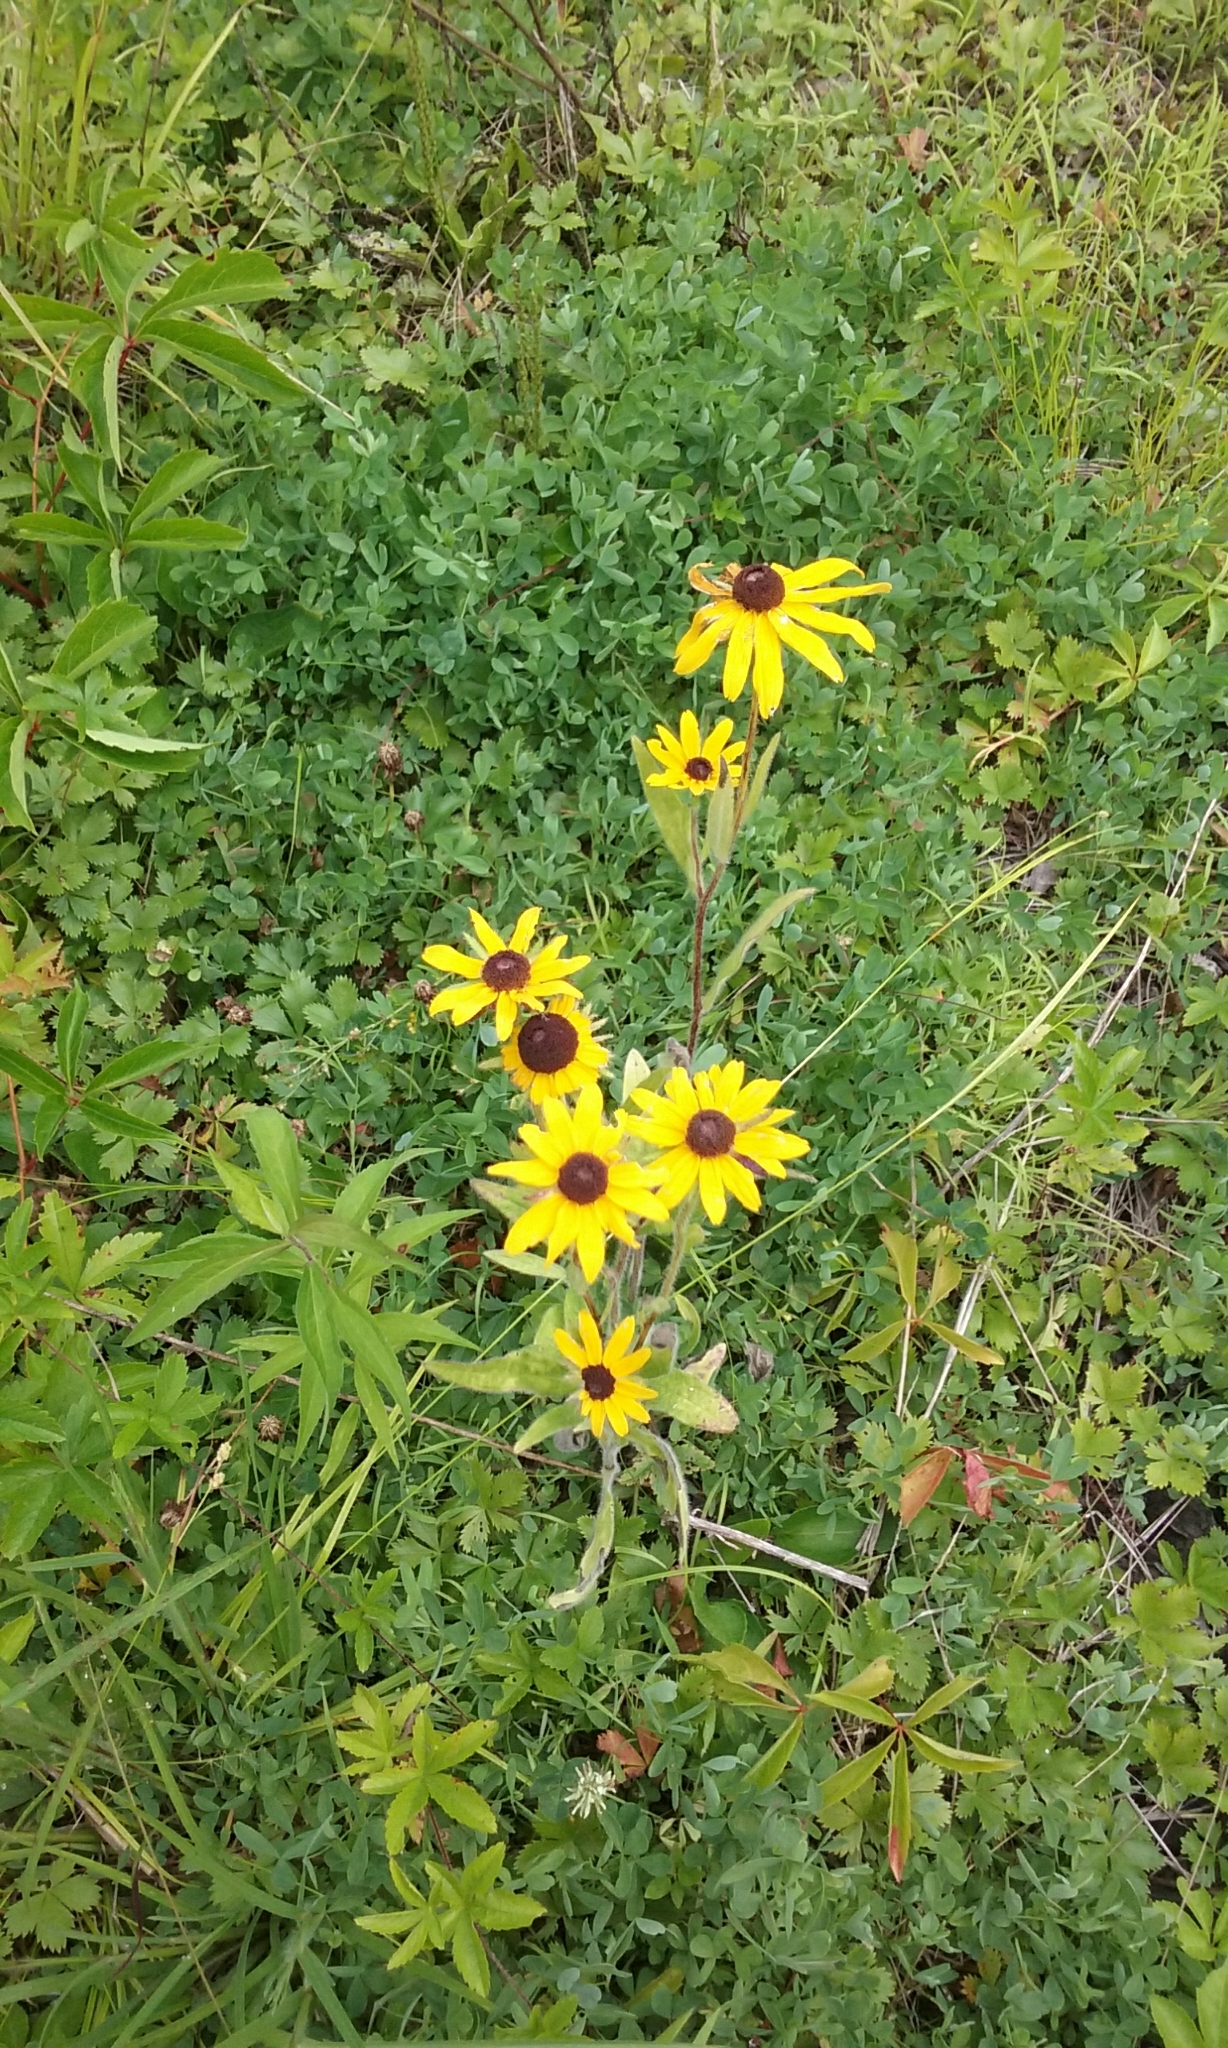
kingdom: Plantae
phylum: Tracheophyta
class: Magnoliopsida
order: Asterales
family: Asteraceae
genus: Rudbeckia
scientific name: Rudbeckia hirta
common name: Black-eyed-susan
